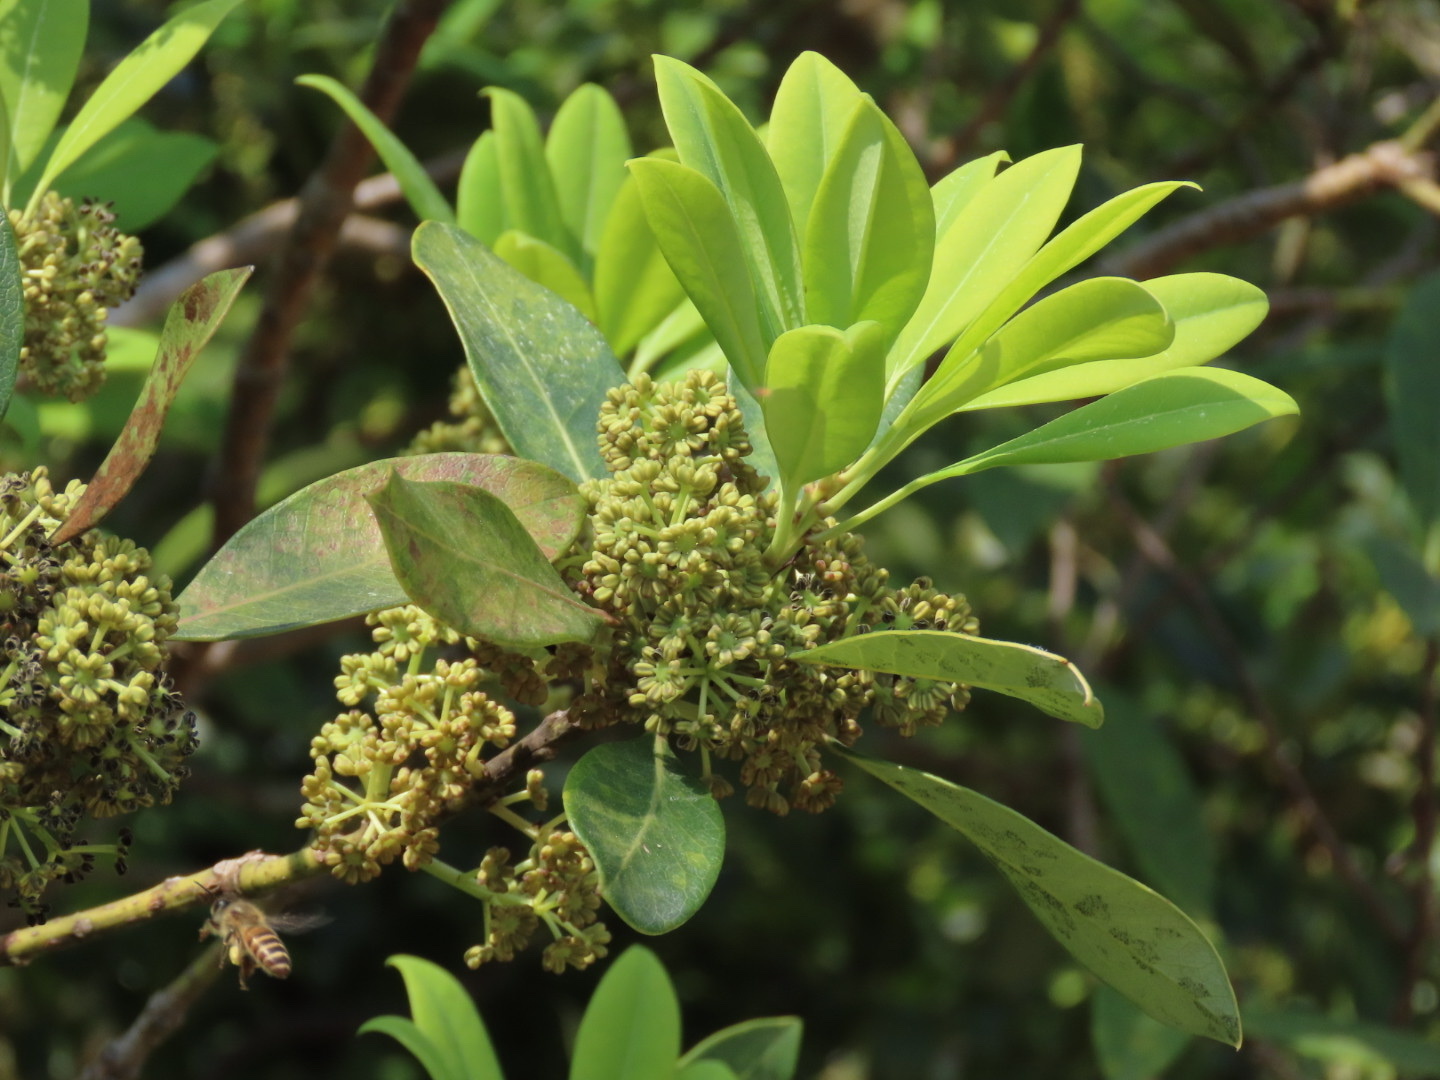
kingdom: Plantae
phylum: Tracheophyta
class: Magnoliopsida
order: Saxifragales
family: Daphniphyllaceae
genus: Daphniphyllum
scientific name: Daphniphyllum pentandrum
